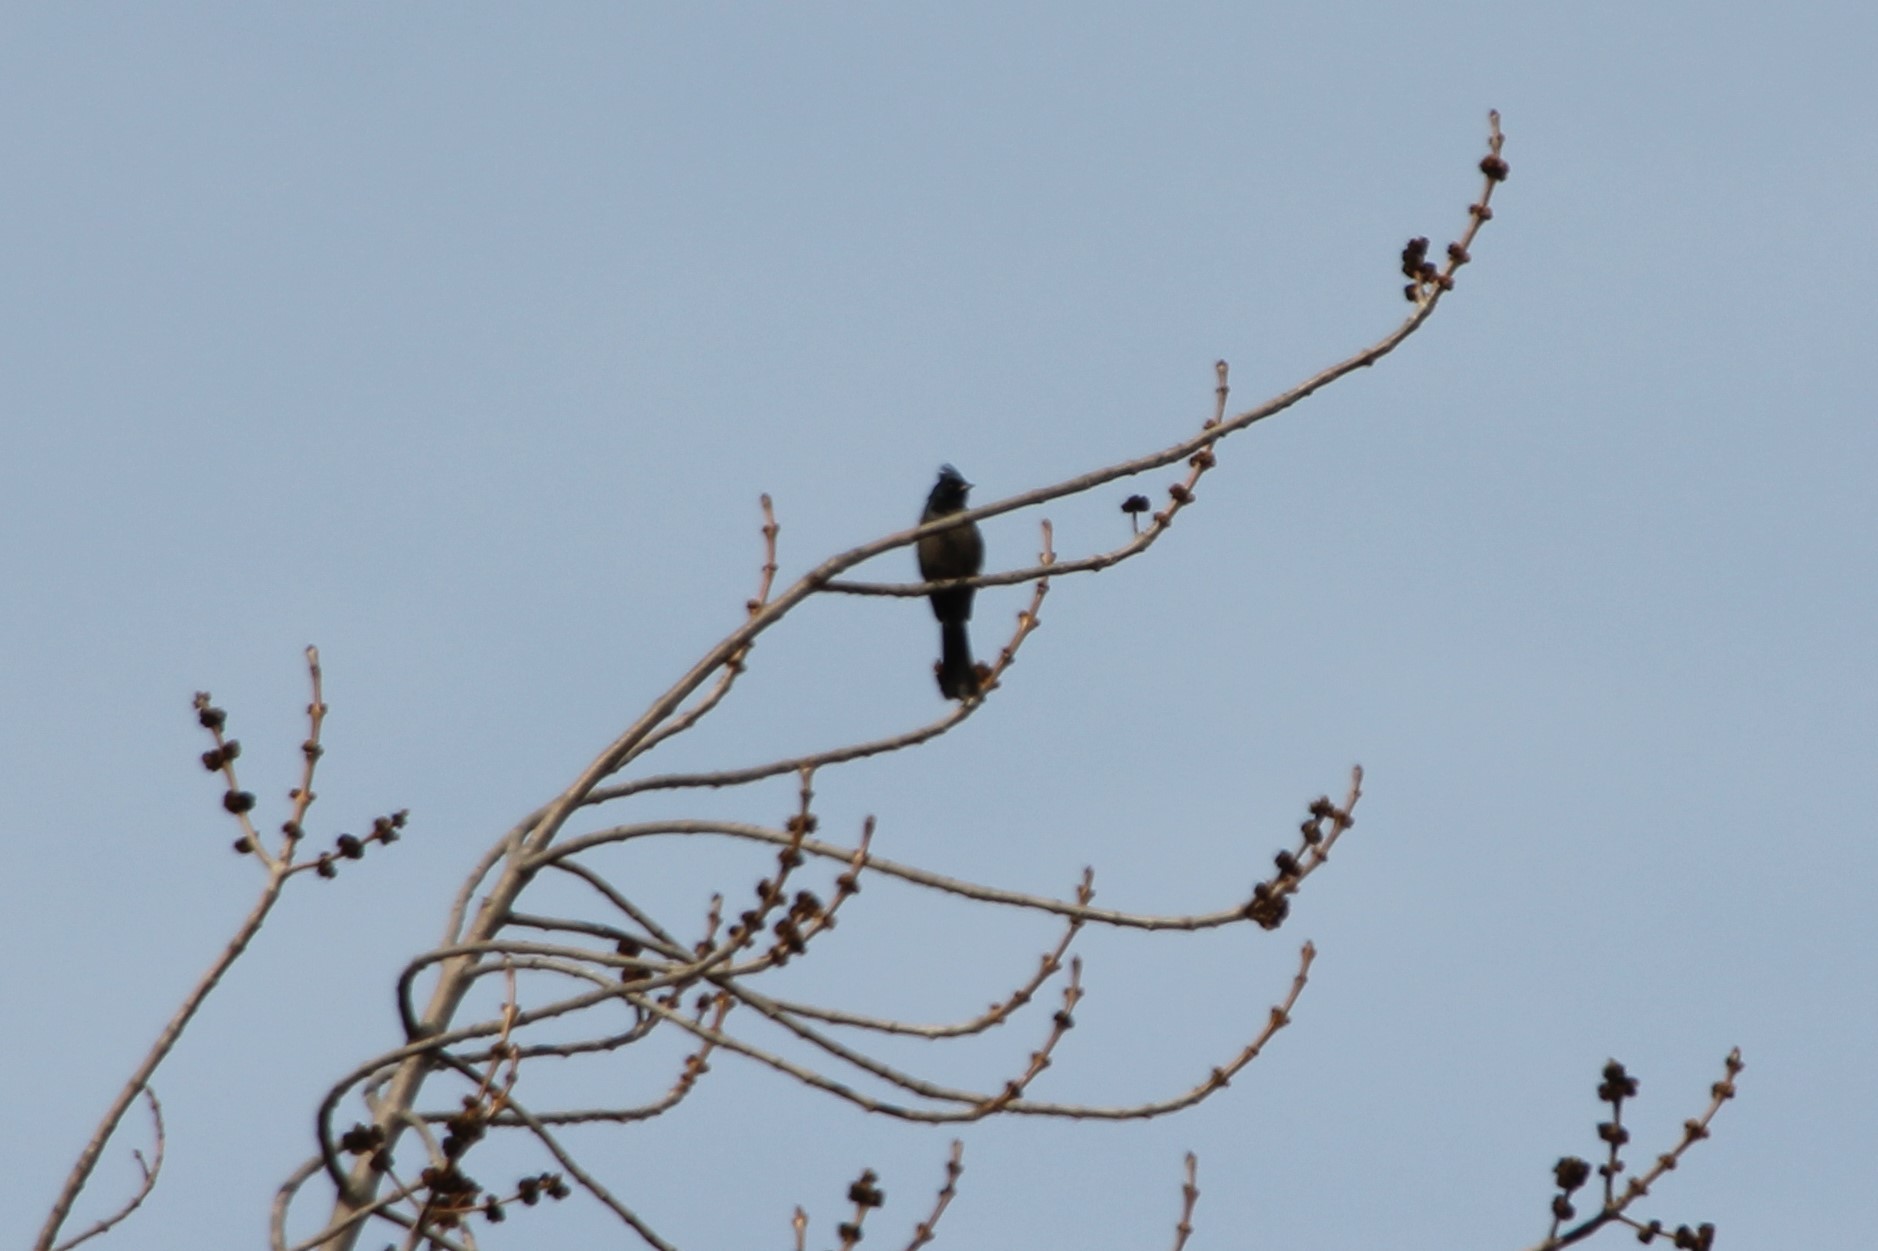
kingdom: Animalia
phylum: Chordata
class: Aves
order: Passeriformes
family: Ptilogonatidae
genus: Phainopepla
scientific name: Phainopepla nitens
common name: Phainopepla
